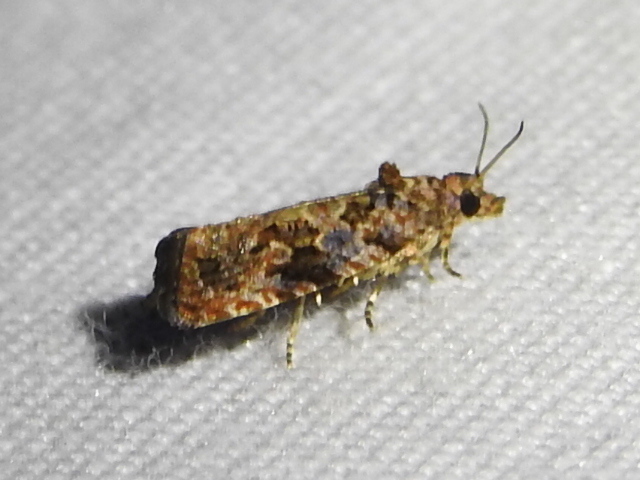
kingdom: Animalia
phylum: Arthropoda
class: Insecta
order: Lepidoptera
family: Tortricidae
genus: Endothenia
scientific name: Endothenia hebesana
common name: Verbena bud moth
